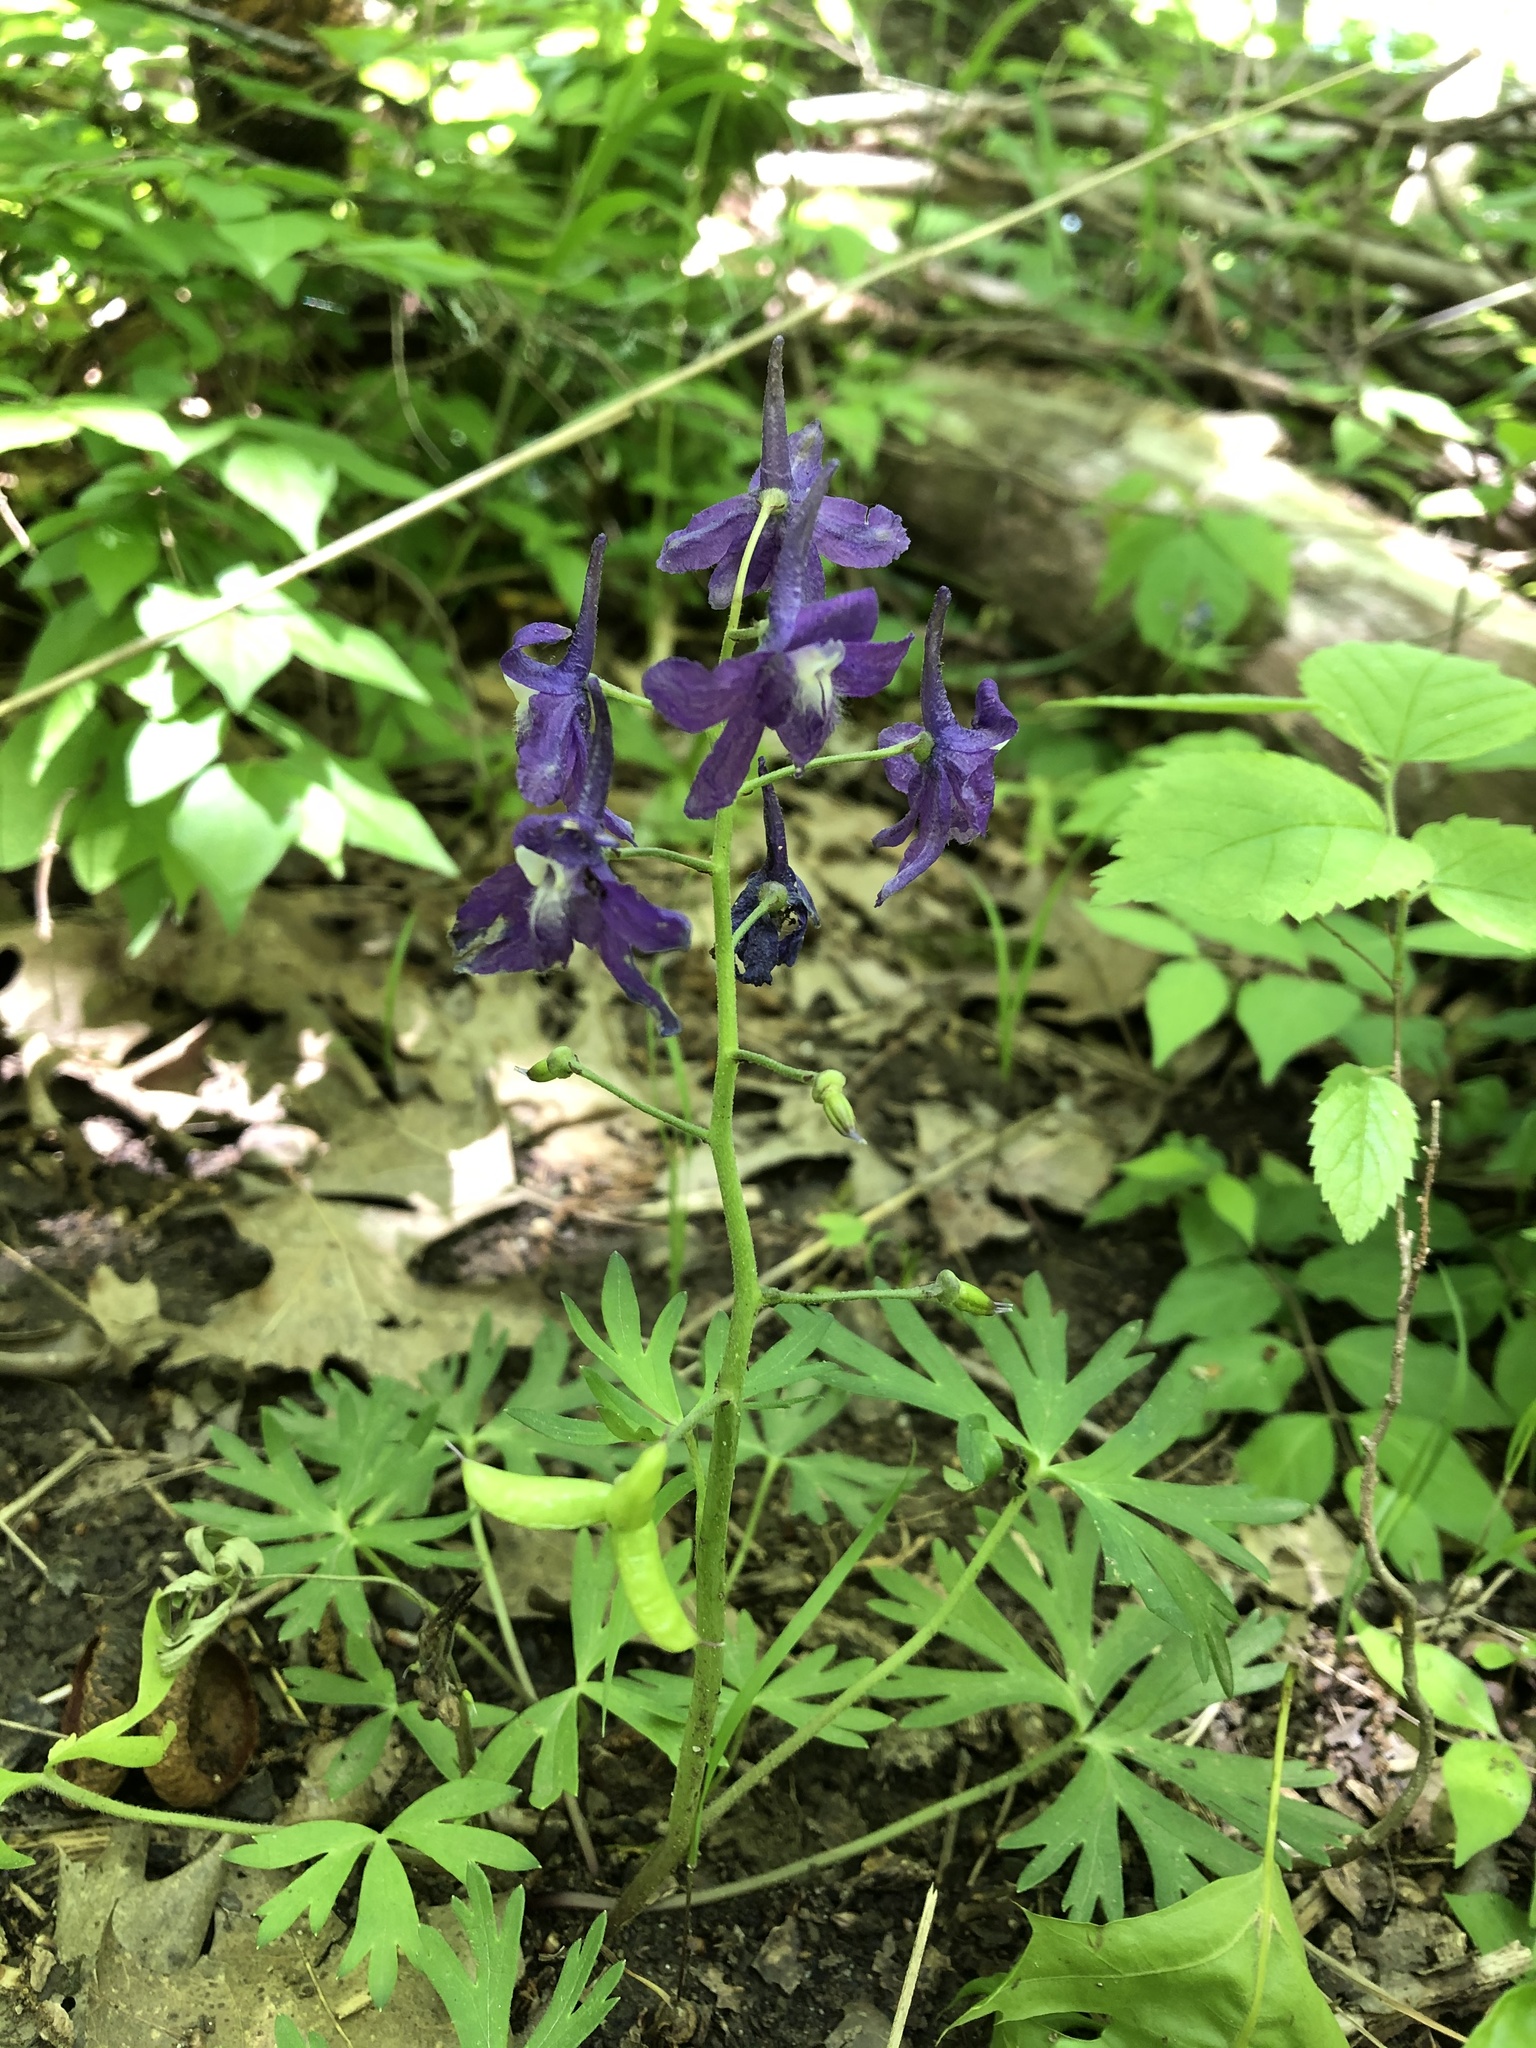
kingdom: Plantae
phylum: Tracheophyta
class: Magnoliopsida
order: Ranunculales
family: Ranunculaceae
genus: Delphinium
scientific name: Delphinium tricorne
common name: Dwarf larkspur
